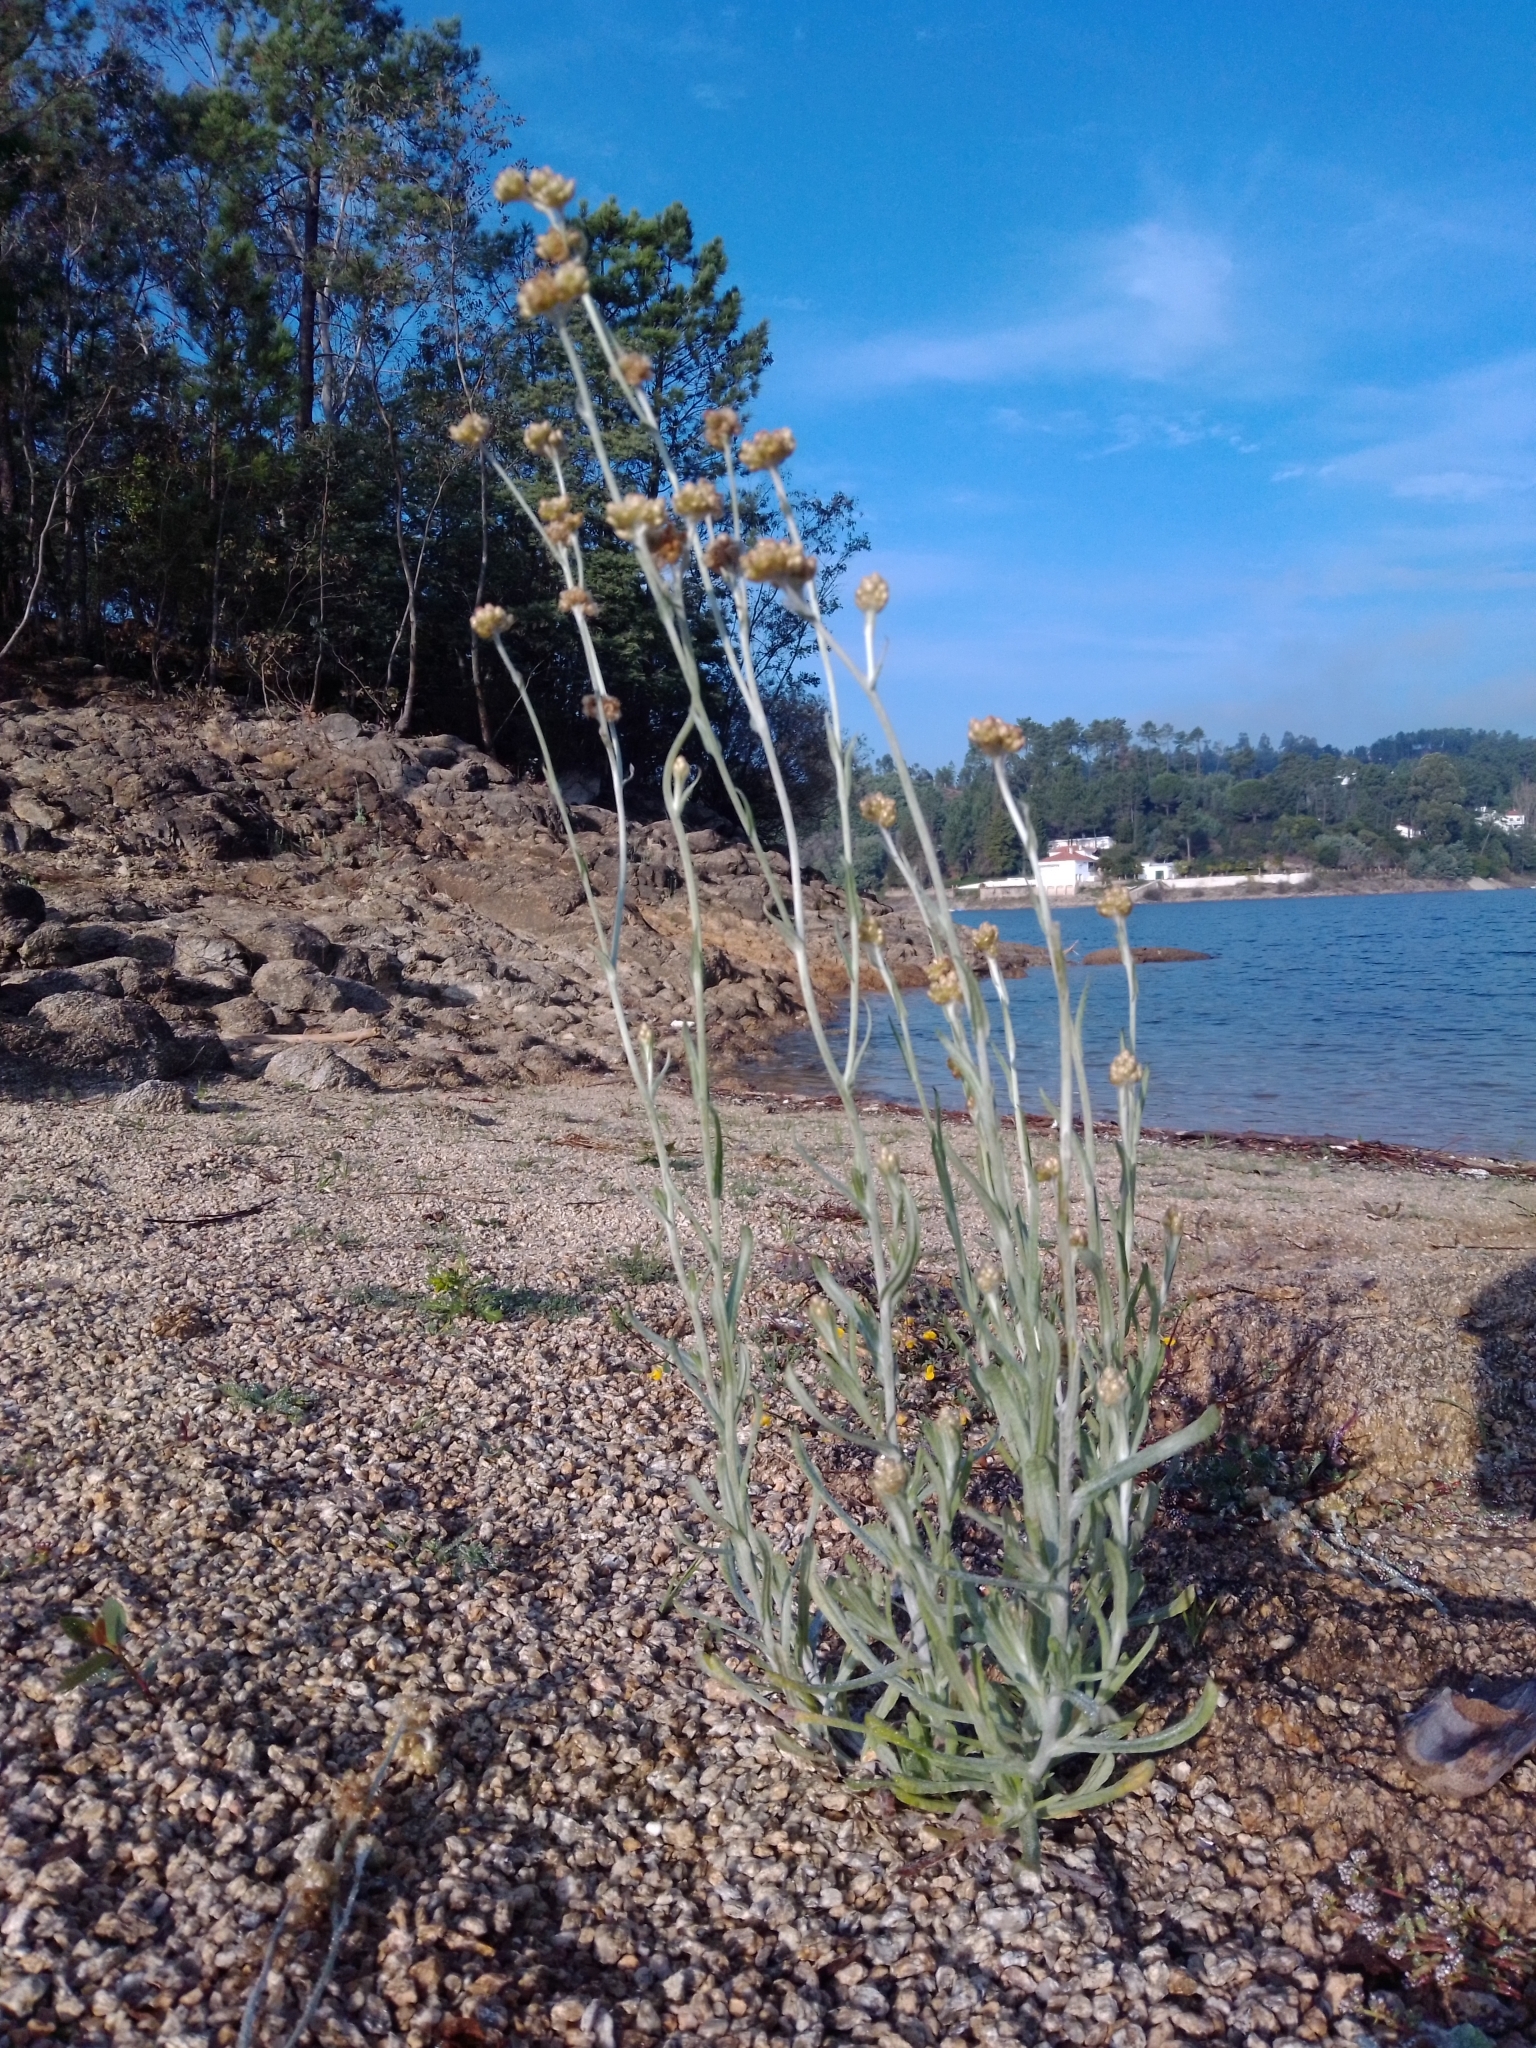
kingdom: Plantae
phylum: Tracheophyta
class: Magnoliopsida
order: Asterales
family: Asteraceae
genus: Helichrysum
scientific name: Helichrysum luteoalbum
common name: Daisy
